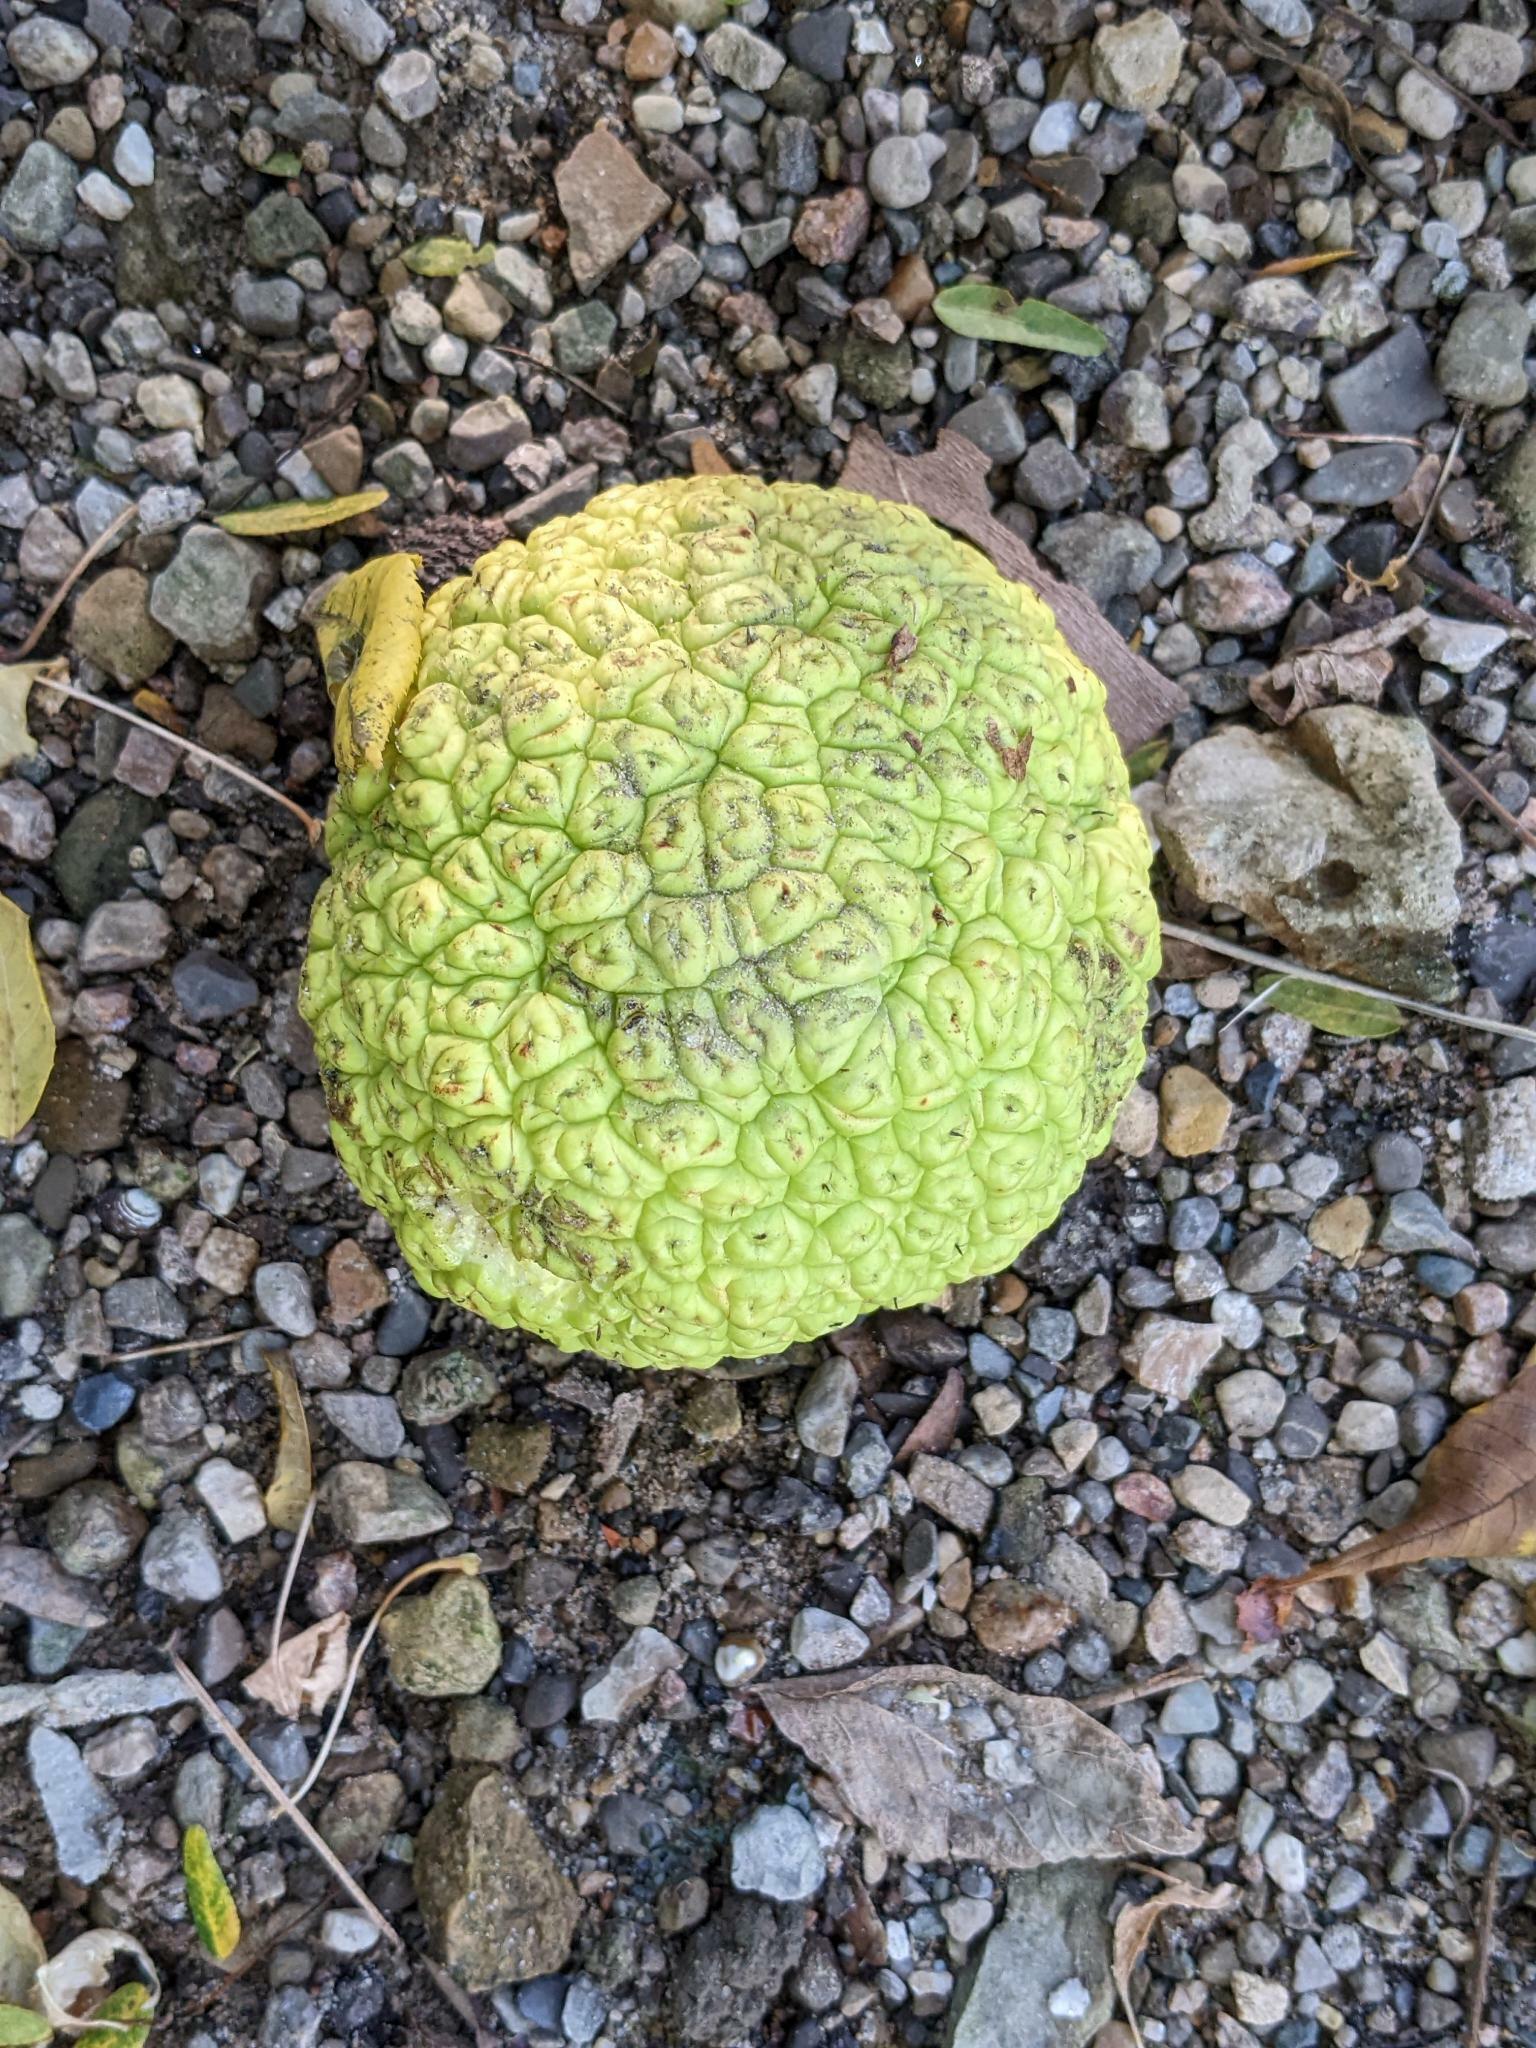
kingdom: Plantae
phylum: Tracheophyta
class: Magnoliopsida
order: Rosales
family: Moraceae
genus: Maclura
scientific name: Maclura pomifera
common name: Osage-orange
